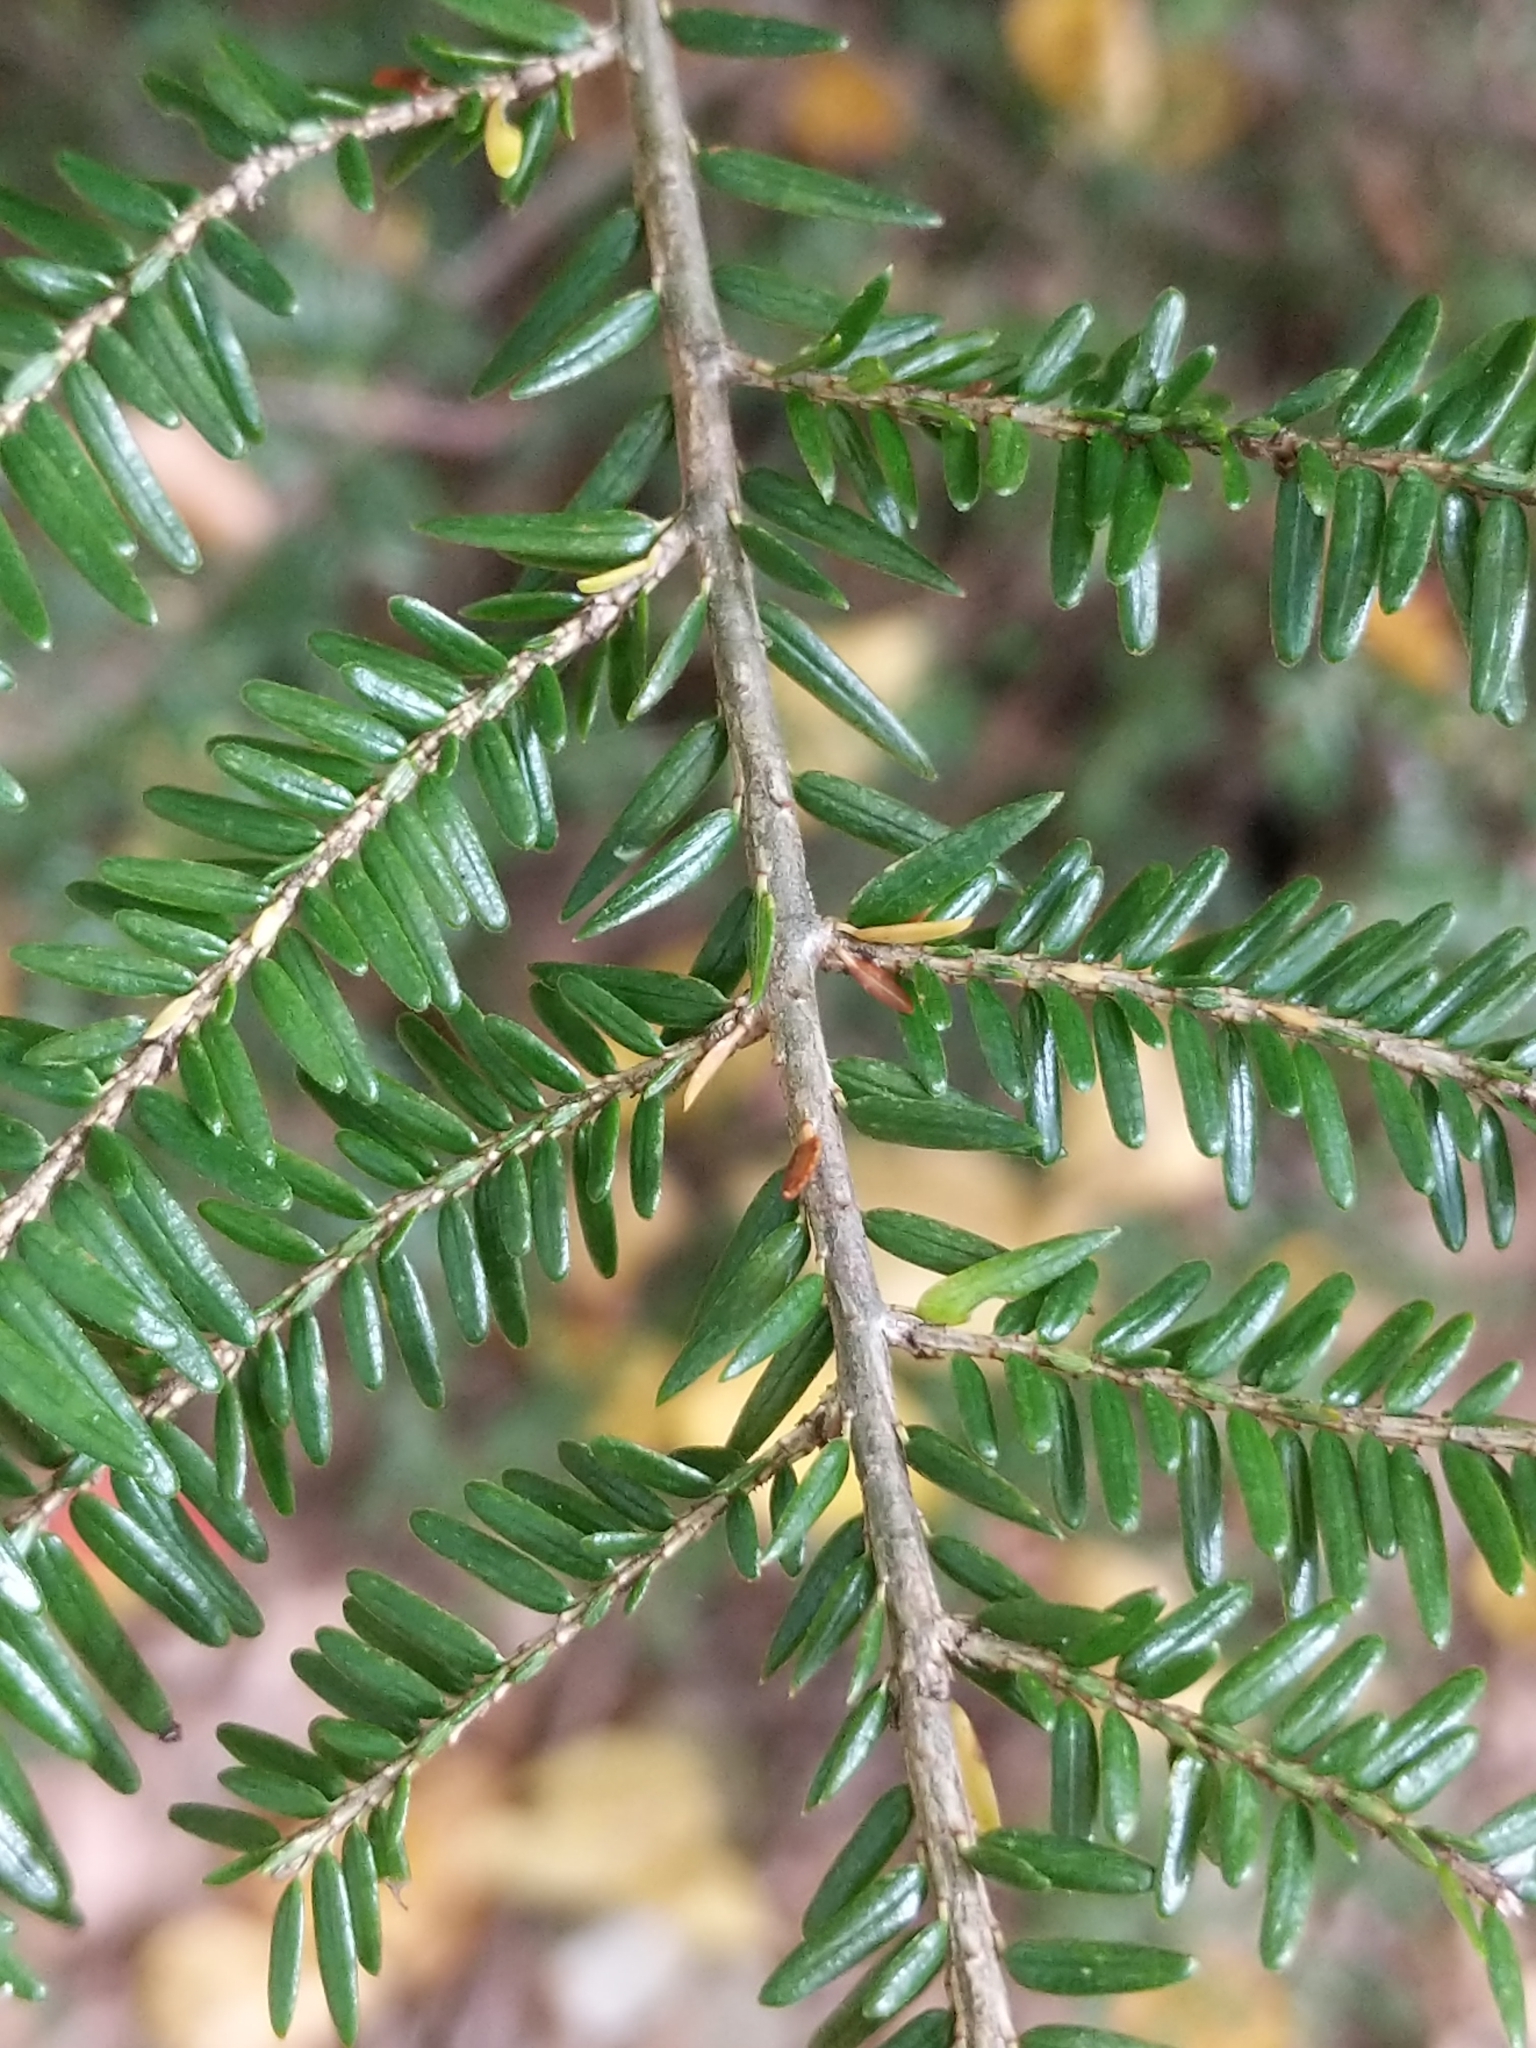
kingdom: Plantae
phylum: Tracheophyta
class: Pinopsida
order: Pinales
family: Pinaceae
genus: Tsuga
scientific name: Tsuga canadensis
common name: Eastern hemlock
